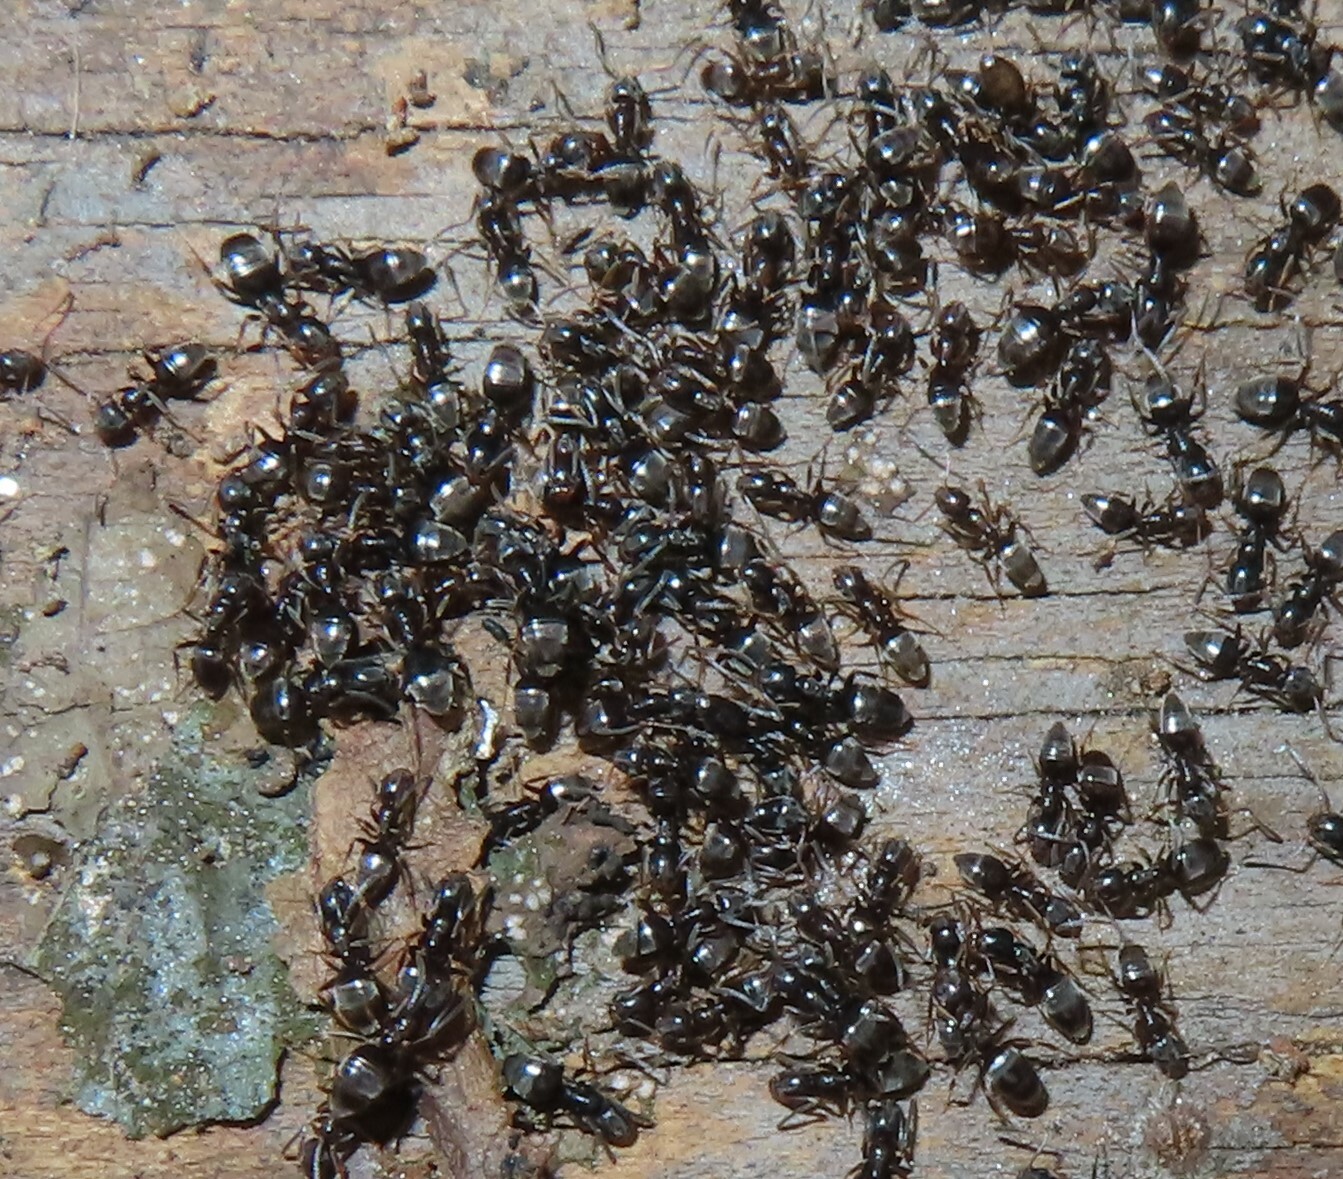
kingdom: Animalia
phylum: Arthropoda
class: Insecta
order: Hymenoptera
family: Formicidae
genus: Tapinoma
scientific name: Tapinoma sessile
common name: Odorous house ant
